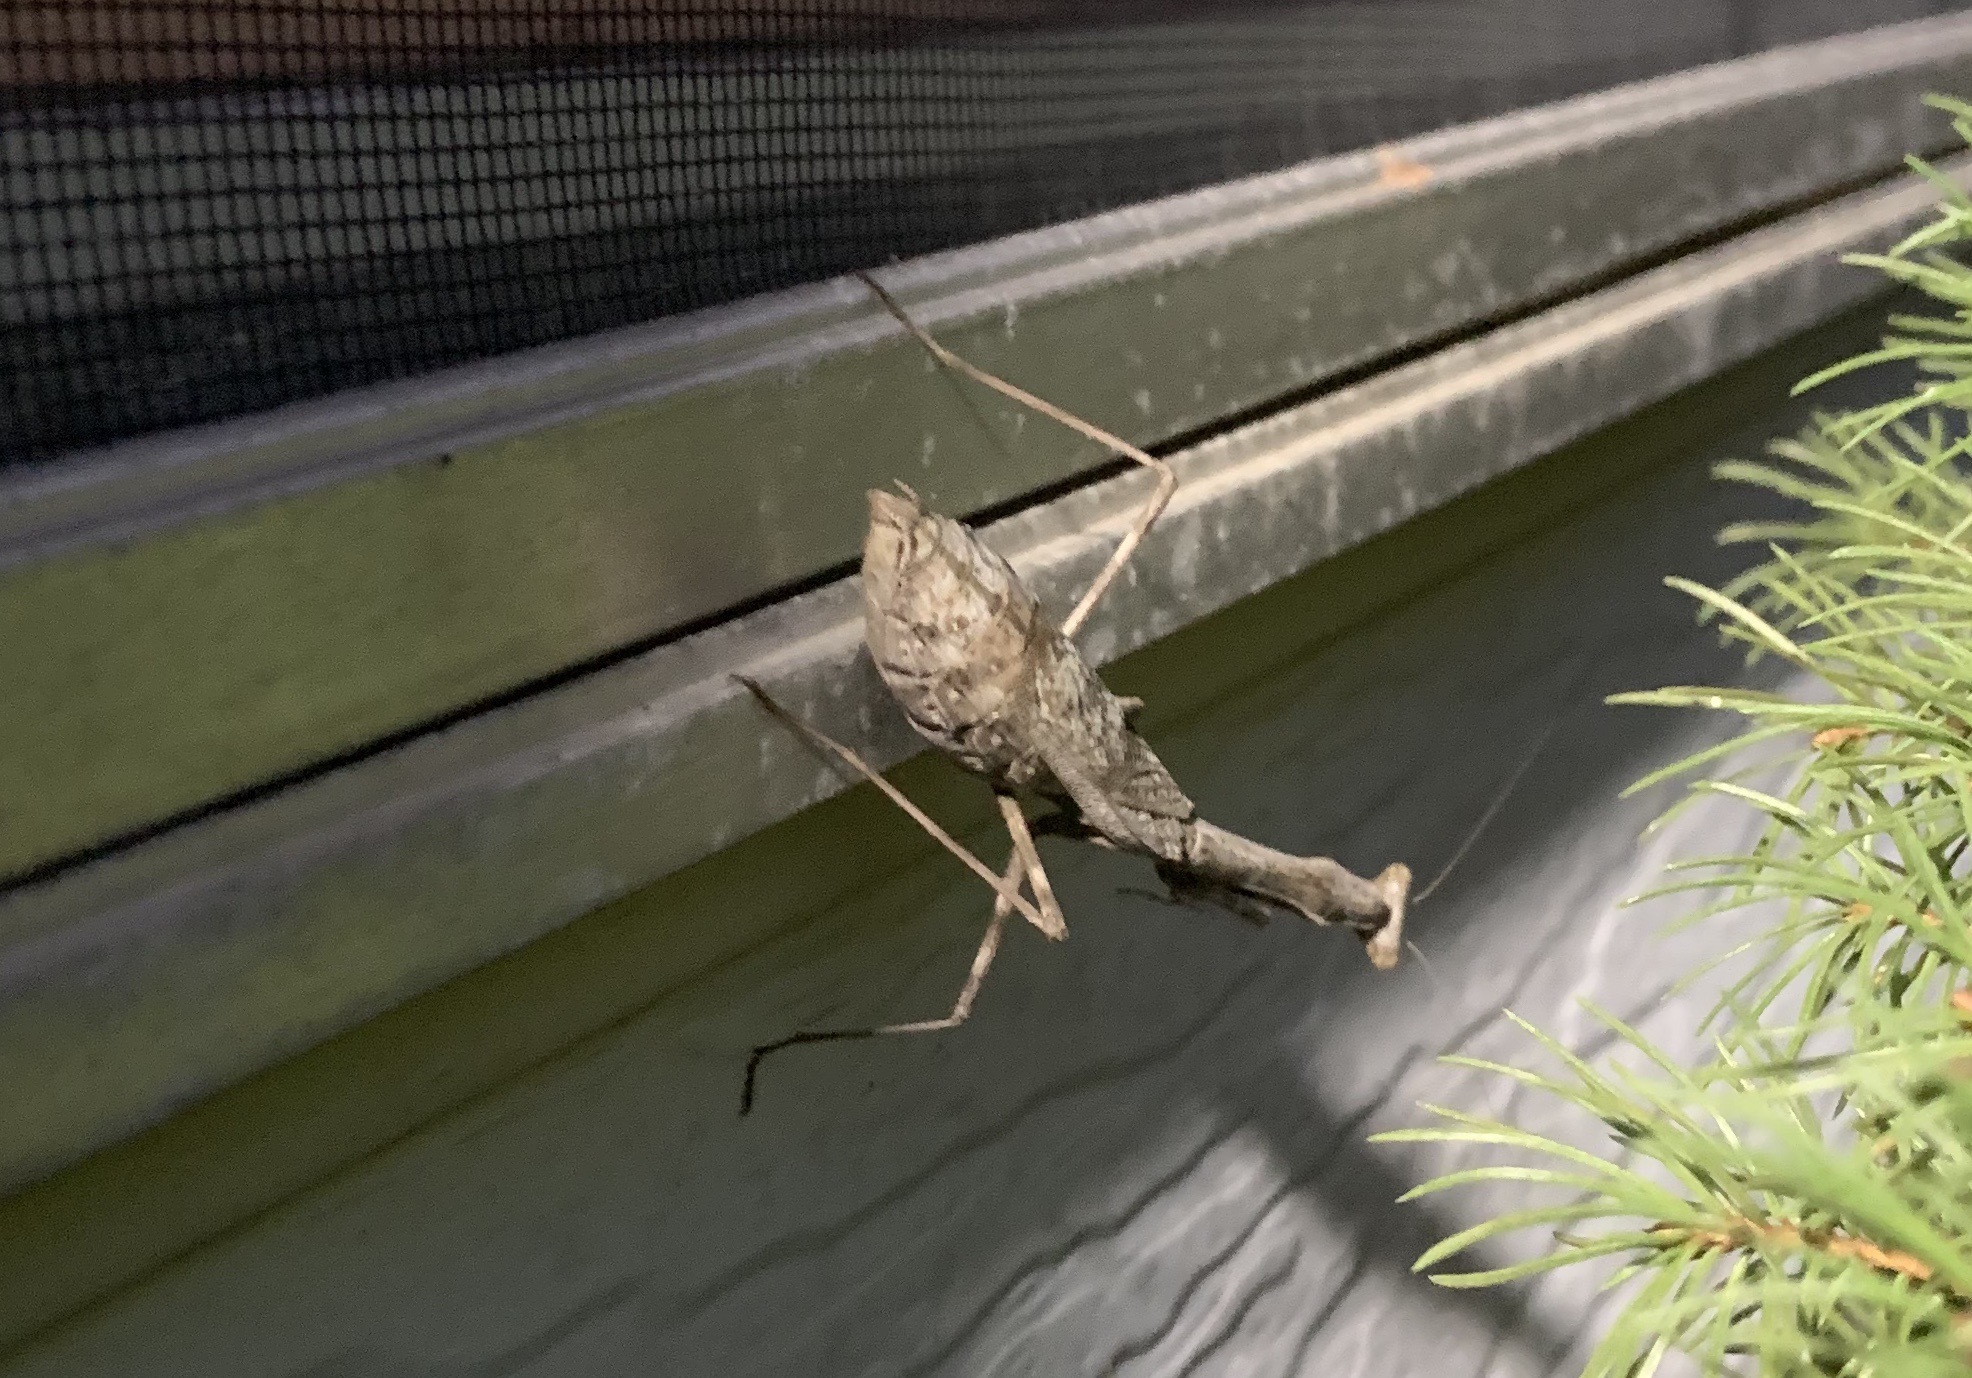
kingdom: Animalia
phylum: Arthropoda
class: Insecta
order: Mantodea
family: Mantidae
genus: Stagmomantis
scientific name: Stagmomantis carolina
